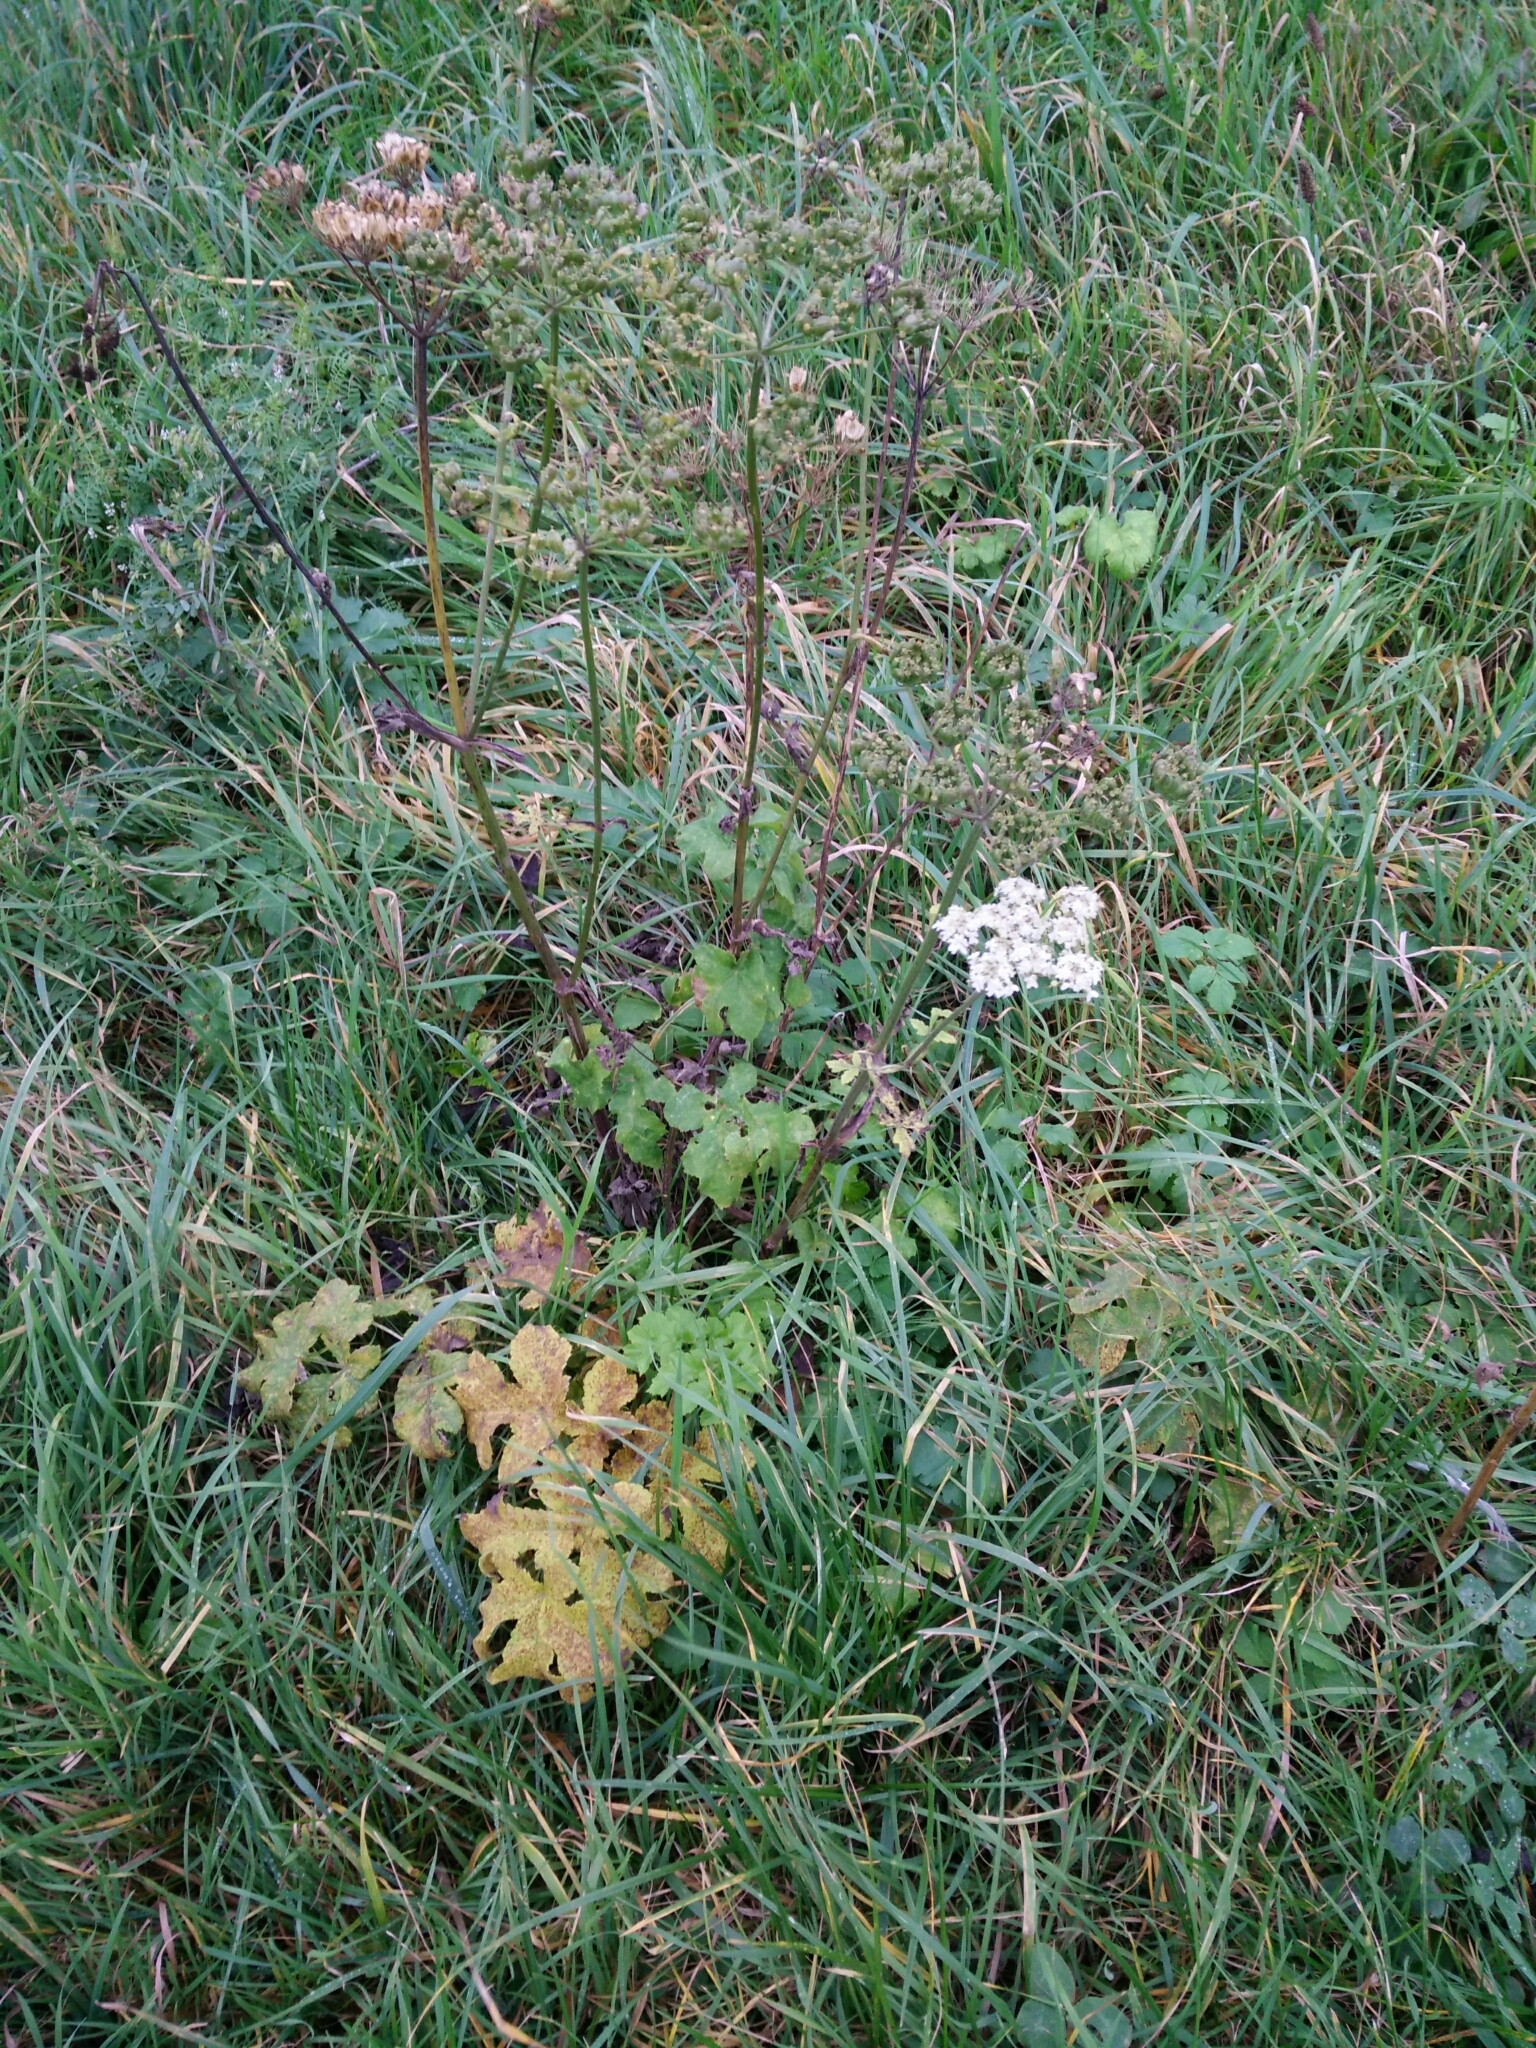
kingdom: Plantae
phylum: Tracheophyta
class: Magnoliopsida
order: Apiales
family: Apiaceae
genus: Heracleum
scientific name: Heracleum sphondylium
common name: Hogweed
